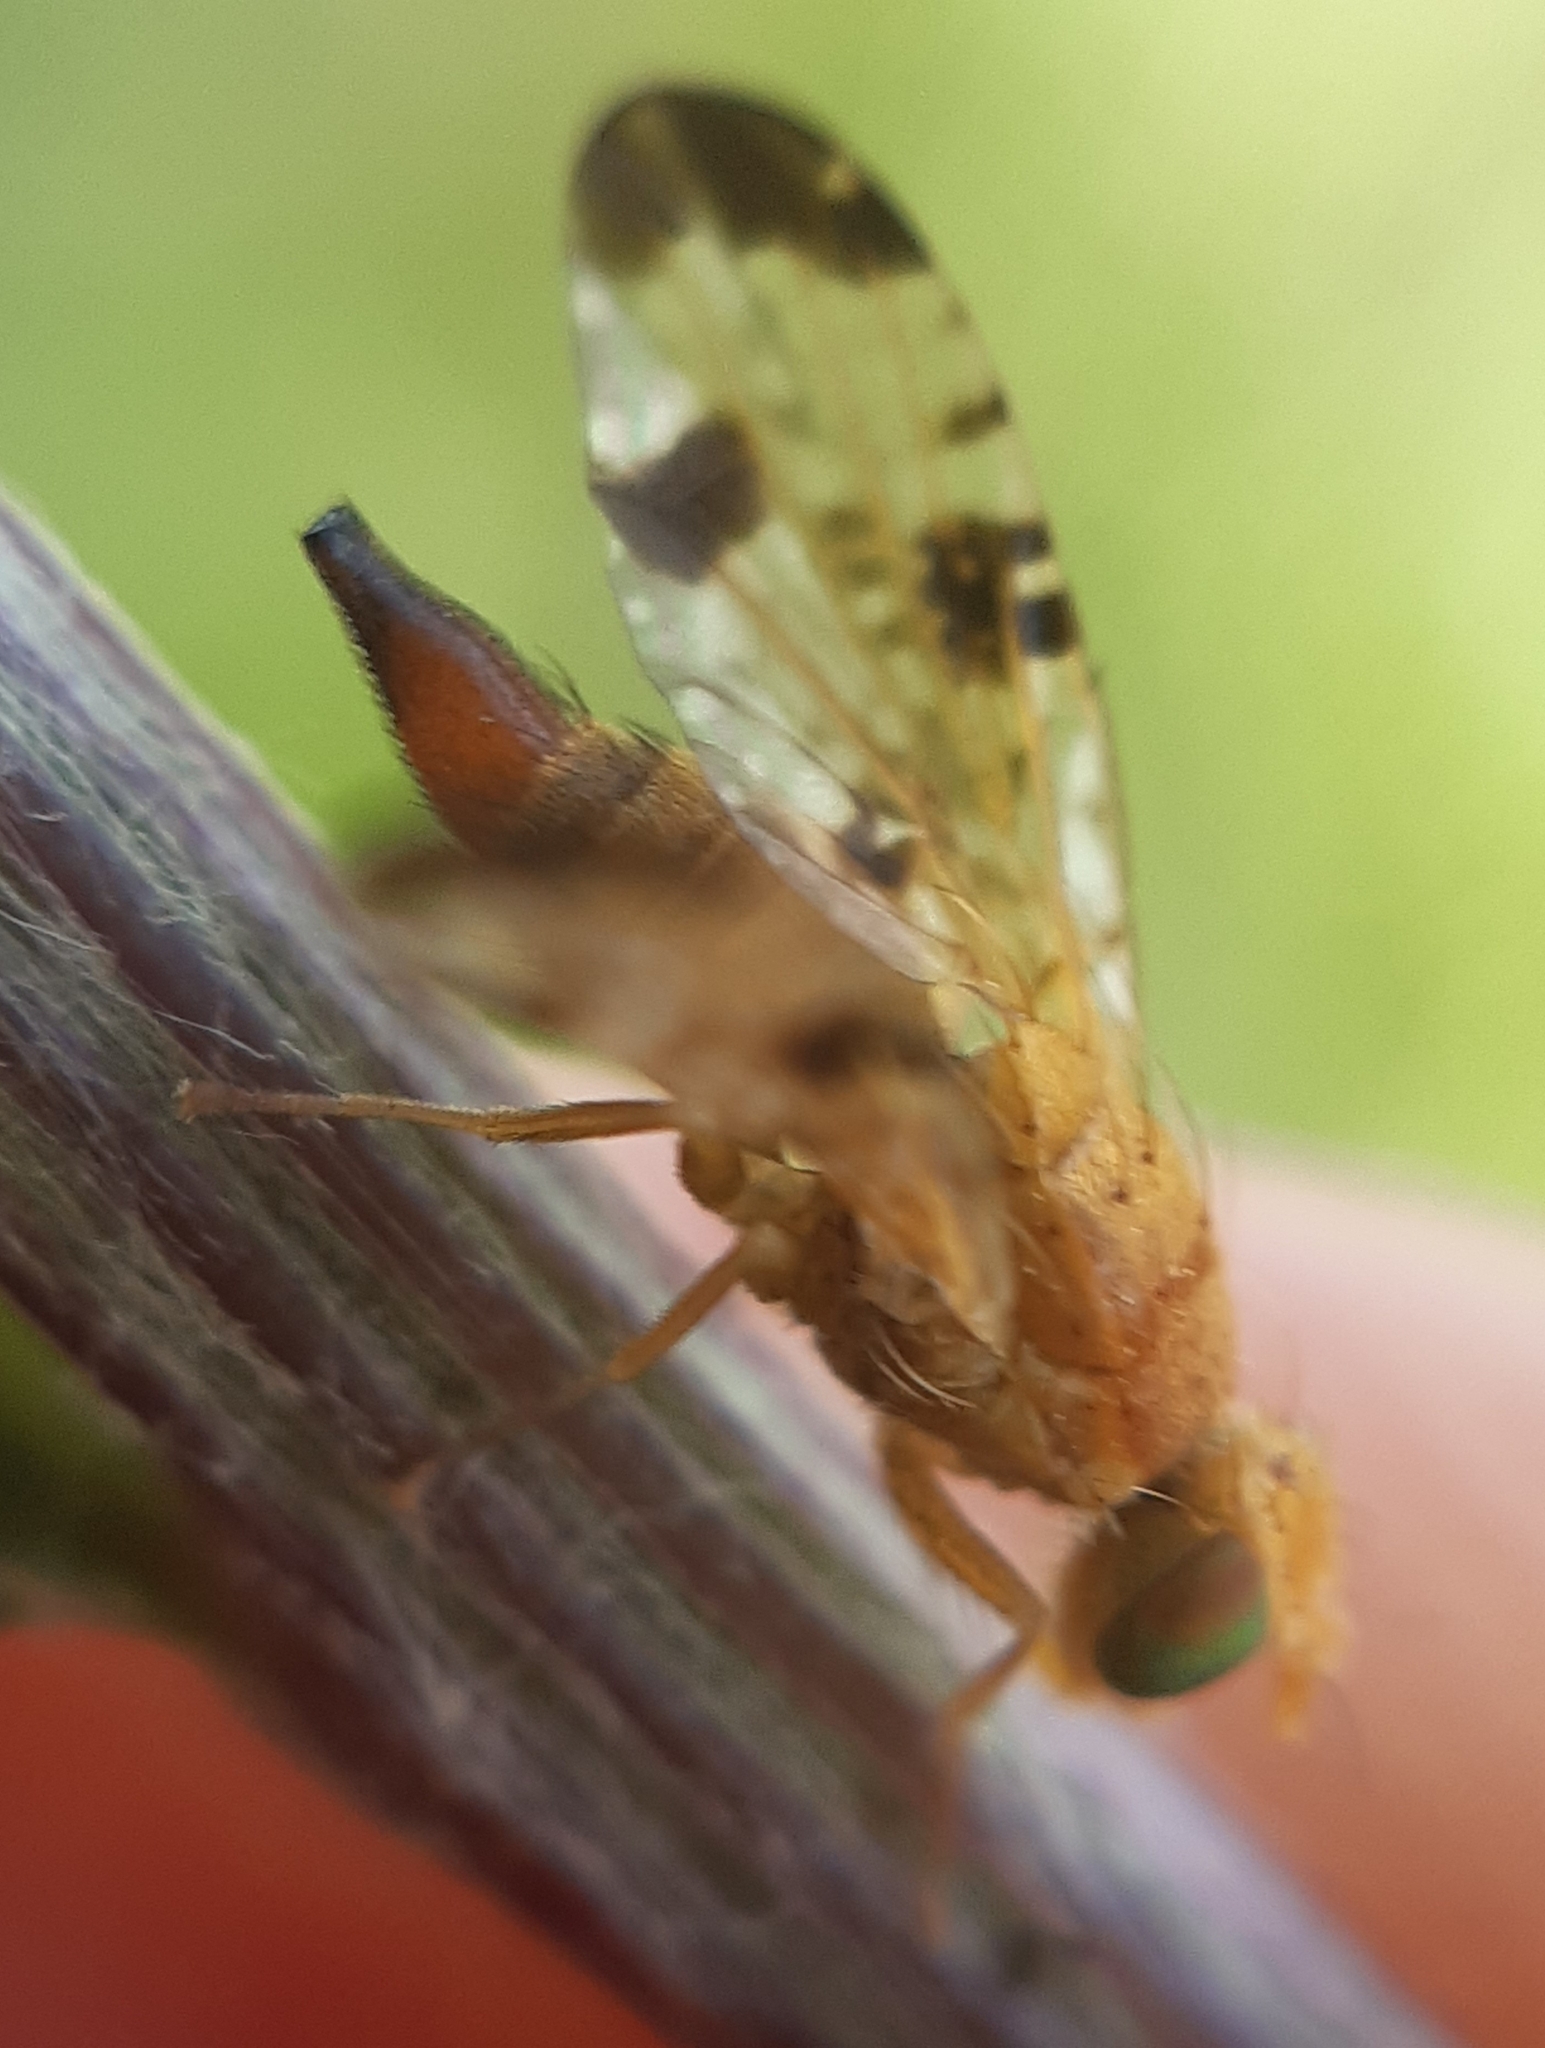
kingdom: Animalia
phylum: Arthropoda
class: Insecta
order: Diptera
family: Tephritidae
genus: Xyphosia
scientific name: Xyphosia miliaria
